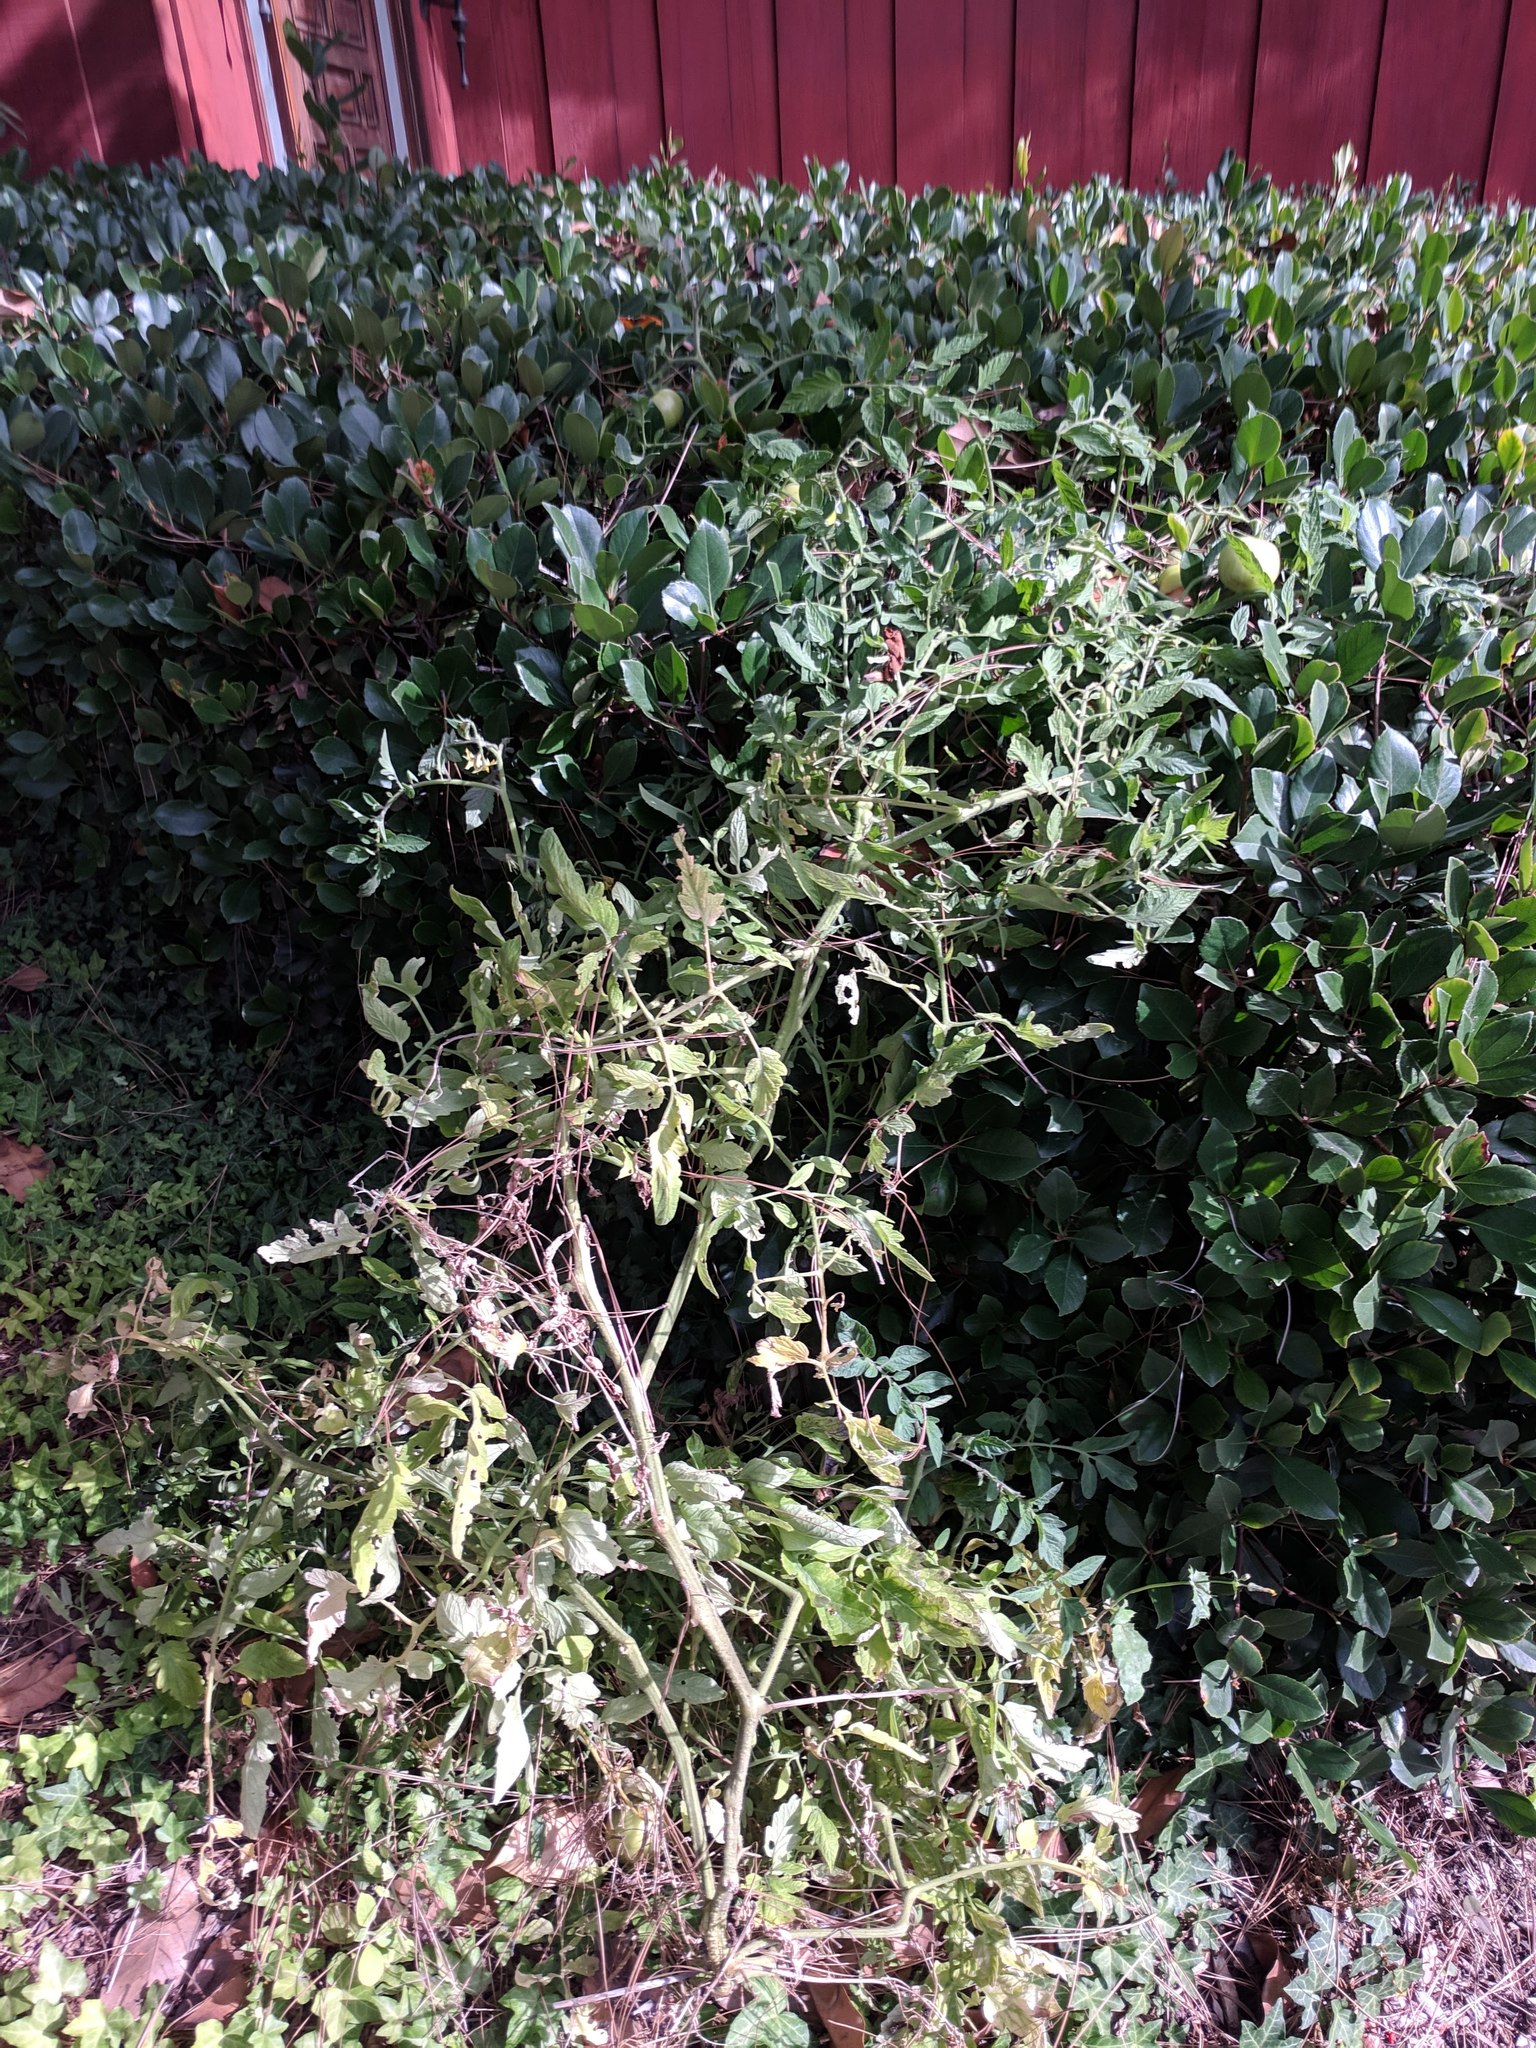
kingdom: Plantae
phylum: Tracheophyta
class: Magnoliopsida
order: Solanales
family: Solanaceae
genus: Solanum
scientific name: Solanum lycopersicum
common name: Garden tomato
